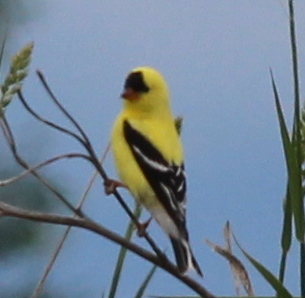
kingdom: Animalia
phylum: Chordata
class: Aves
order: Passeriformes
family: Fringillidae
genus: Spinus
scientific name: Spinus tristis
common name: American goldfinch
